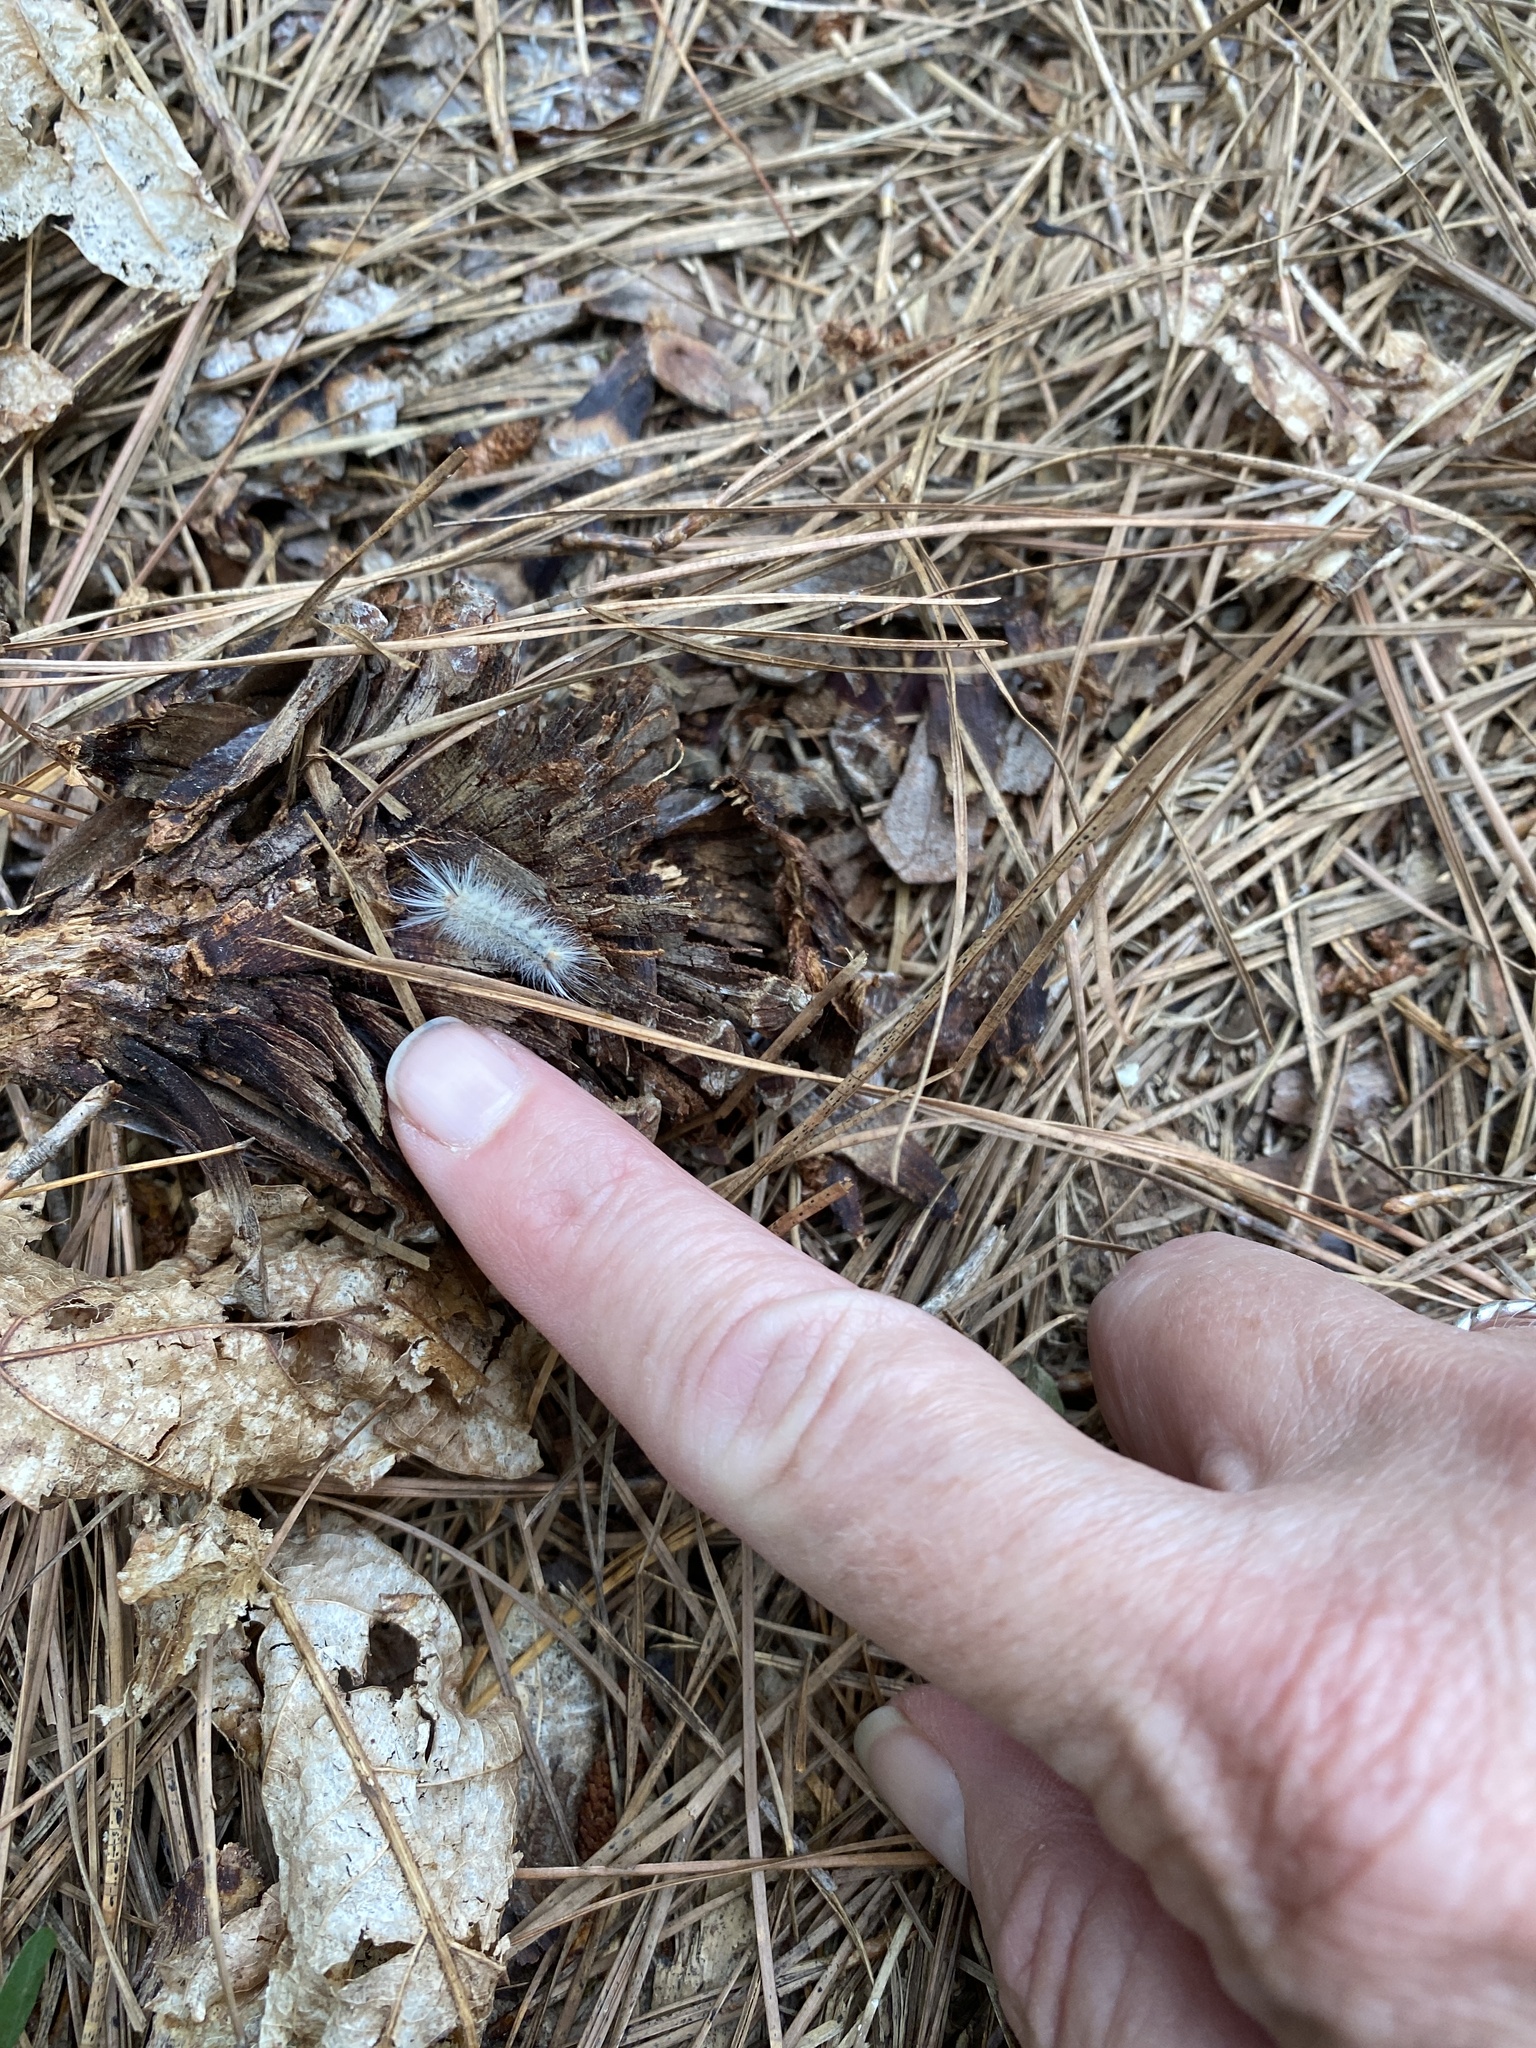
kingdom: Animalia
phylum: Arthropoda
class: Insecta
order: Lepidoptera
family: Erebidae
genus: Halysidota
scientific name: Halysidota tessellaris
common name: Banded tussock moth
